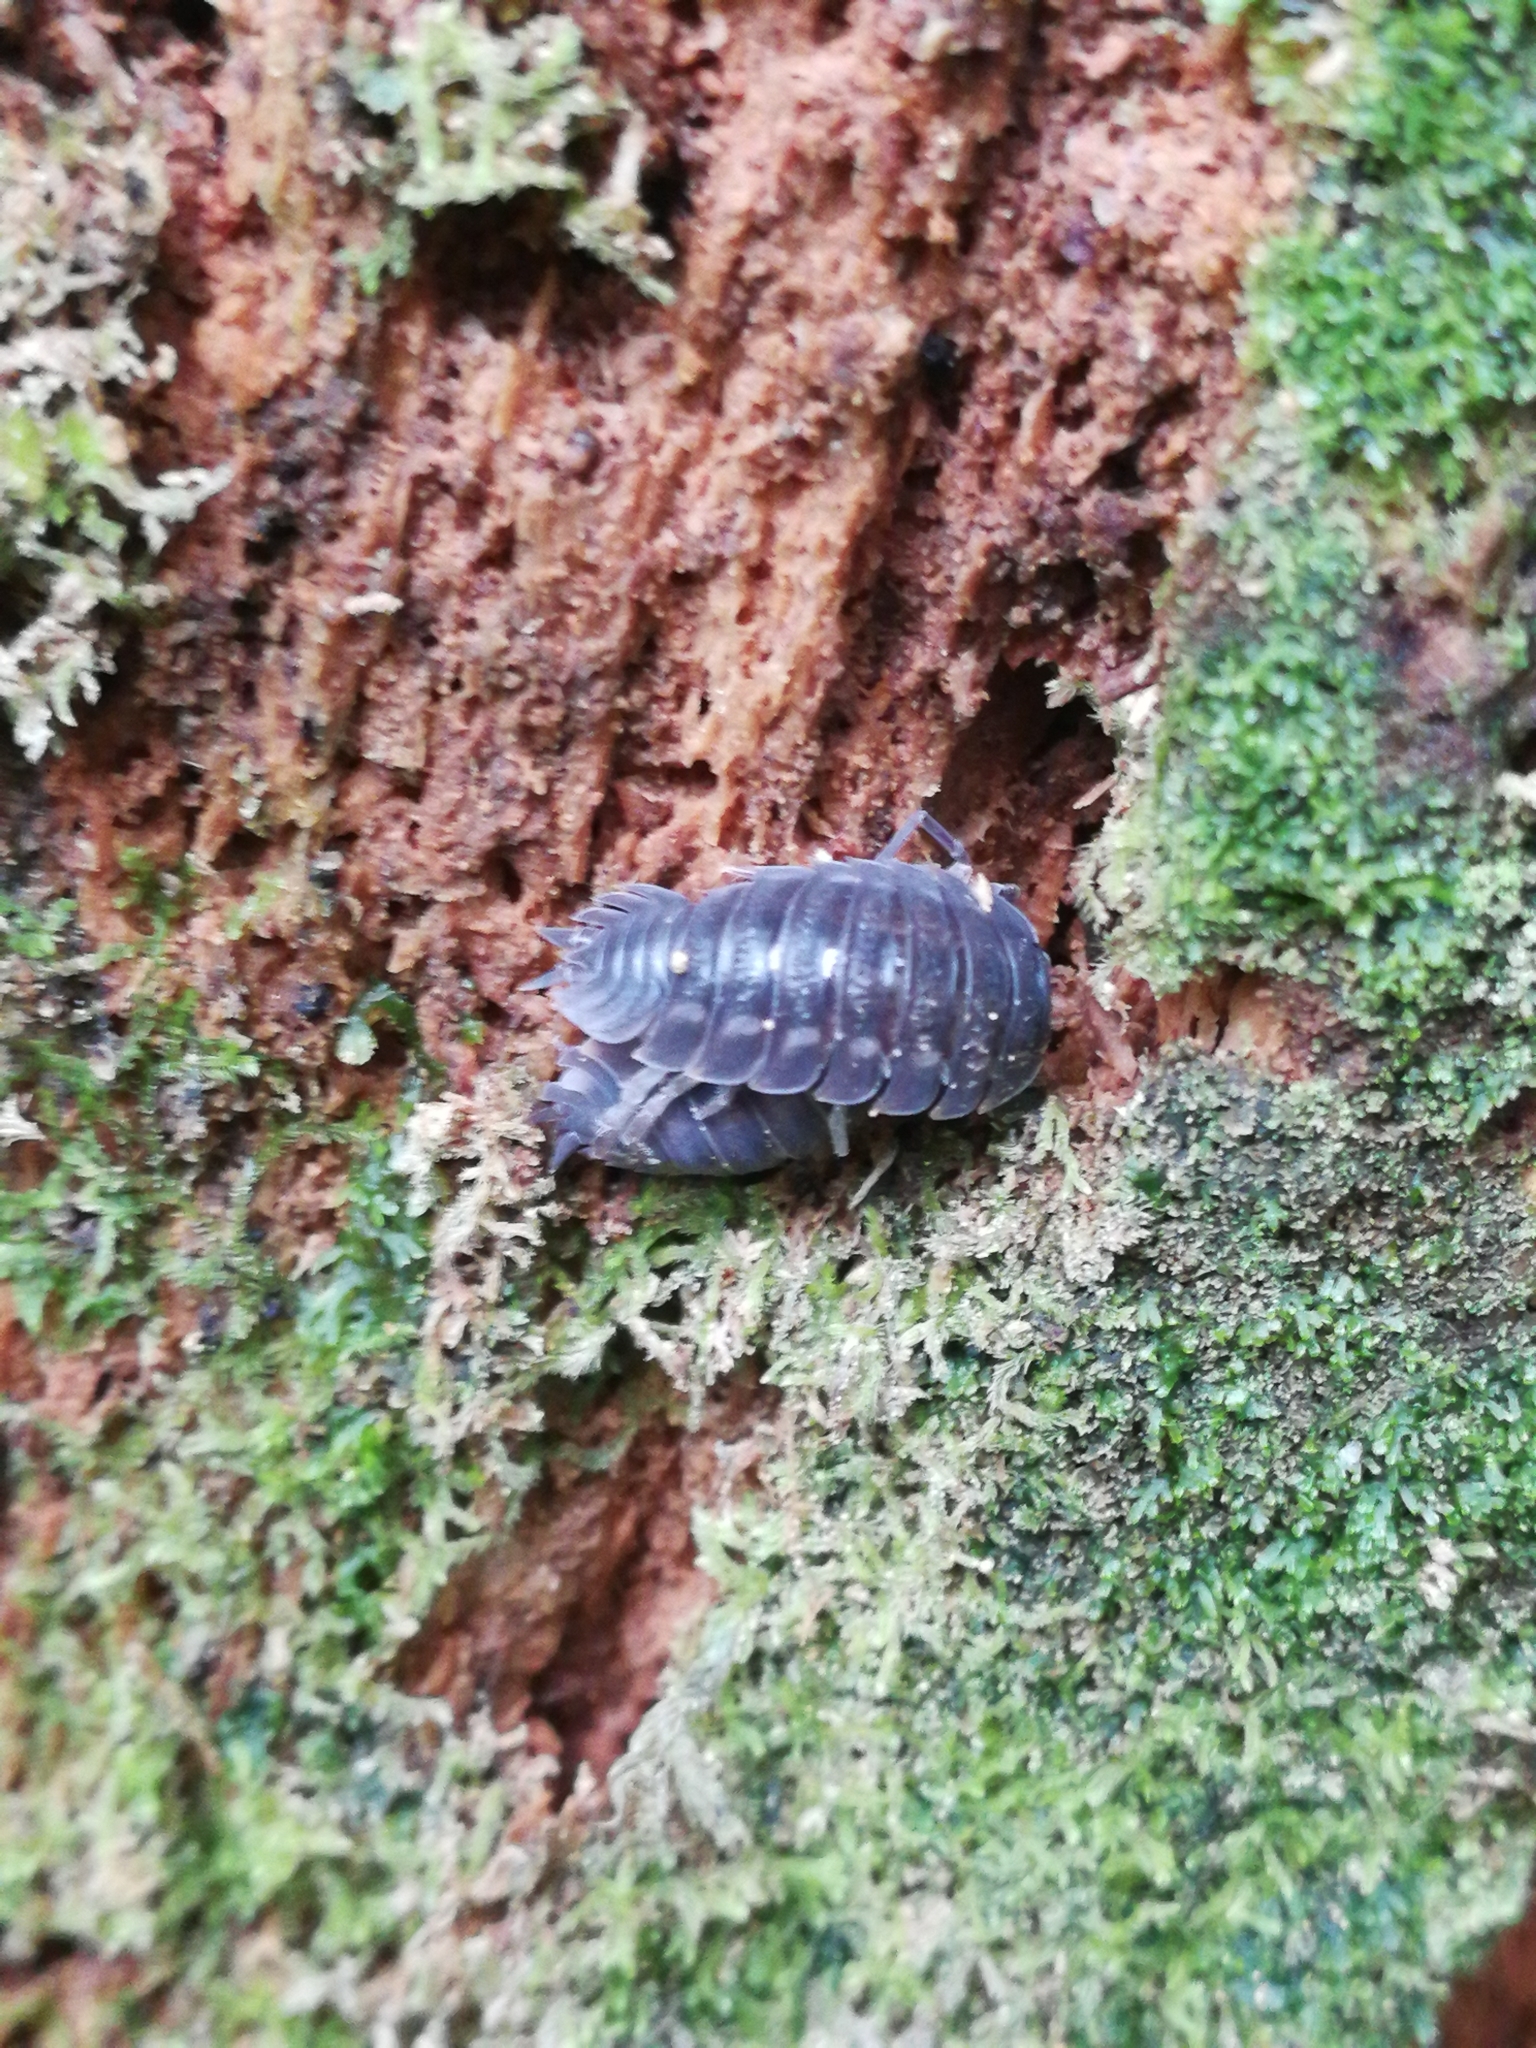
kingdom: Animalia
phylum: Arthropoda
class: Malacostraca
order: Isopoda
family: Trachelipodidae
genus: Trachelipus
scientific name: Trachelipus ratzeburgii
